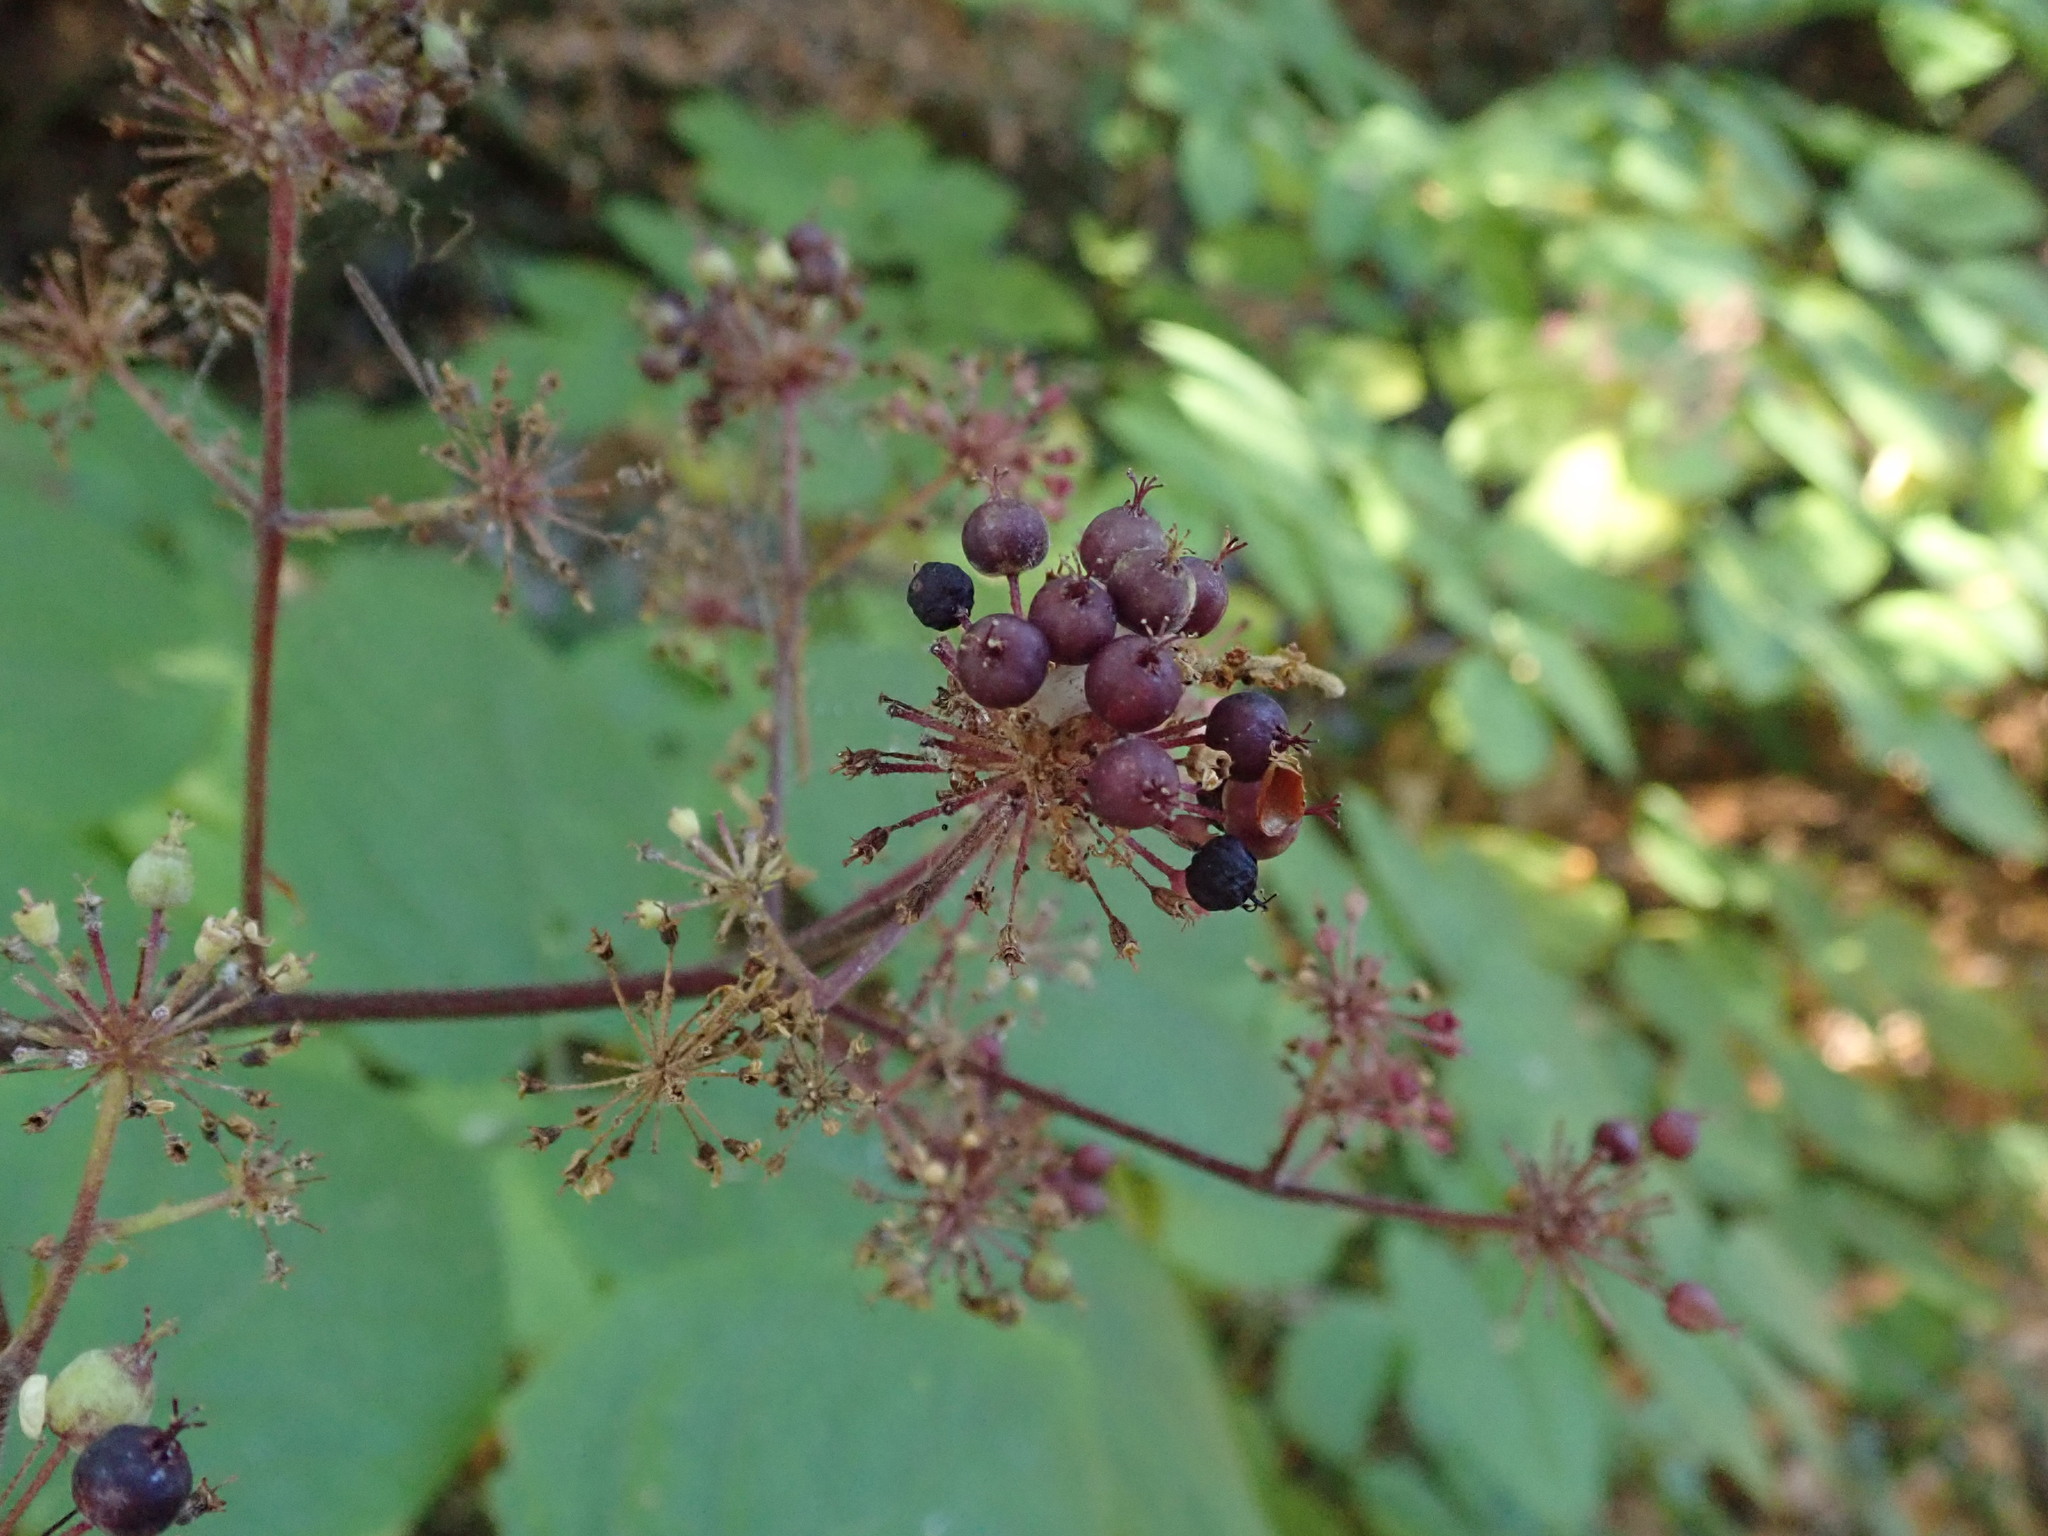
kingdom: Plantae
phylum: Tracheophyta
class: Magnoliopsida
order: Apiales
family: Araliaceae
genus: Aralia
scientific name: Aralia californica
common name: California-ginseng
